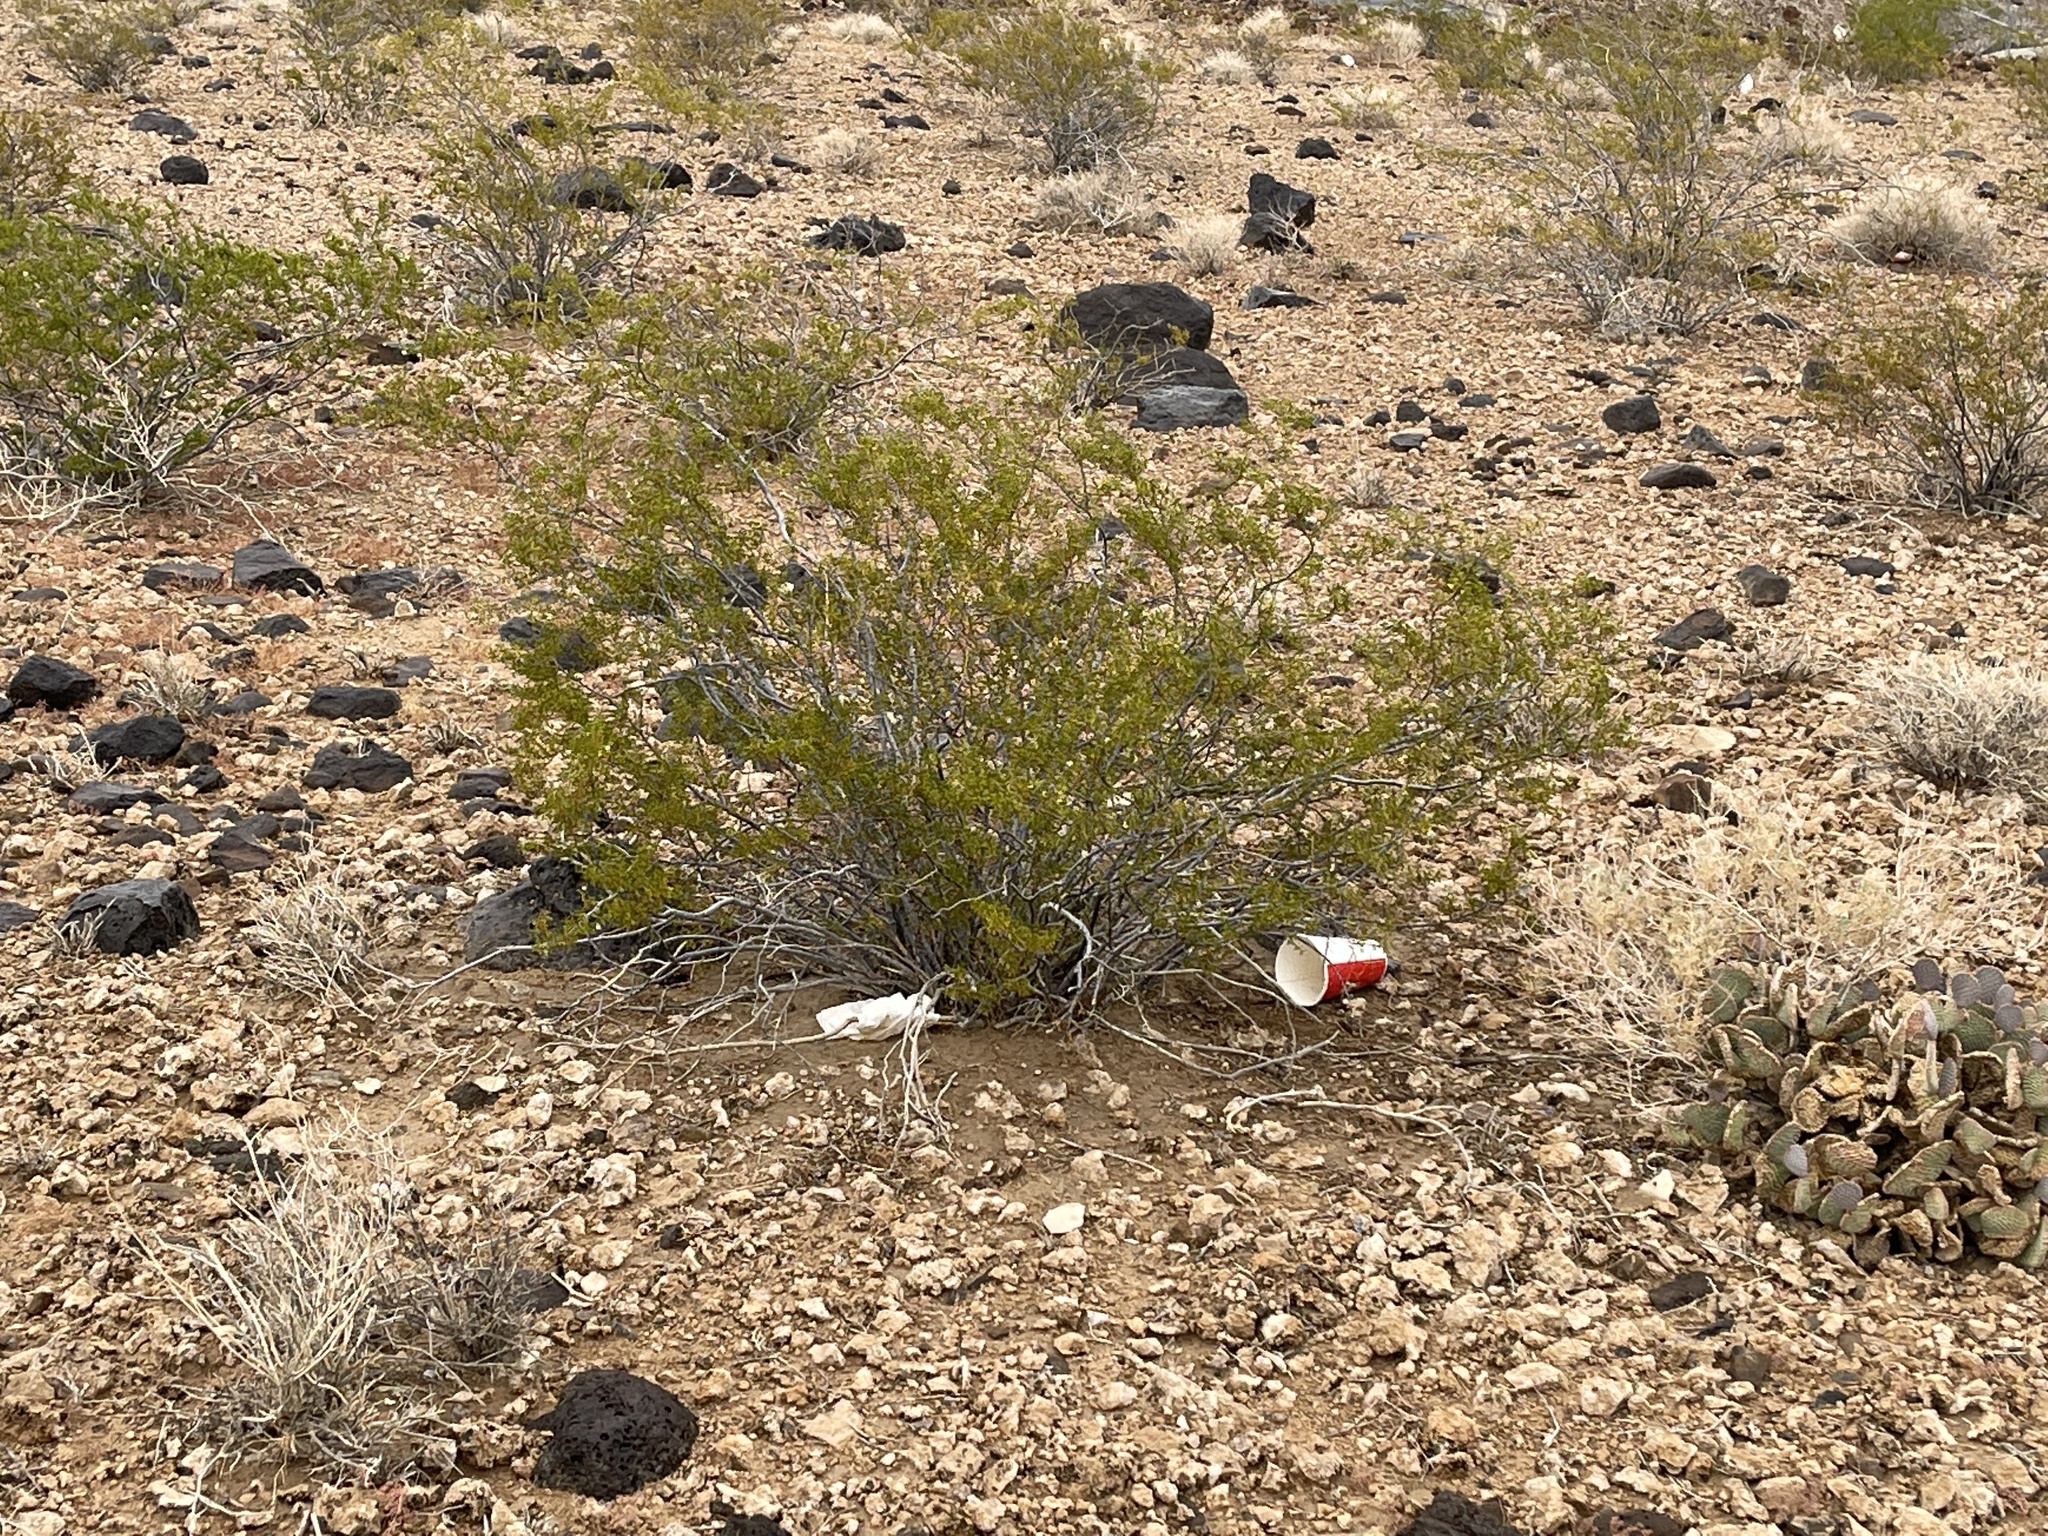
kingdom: Plantae
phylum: Tracheophyta
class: Magnoliopsida
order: Zygophyllales
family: Zygophyllaceae
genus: Larrea
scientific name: Larrea tridentata
